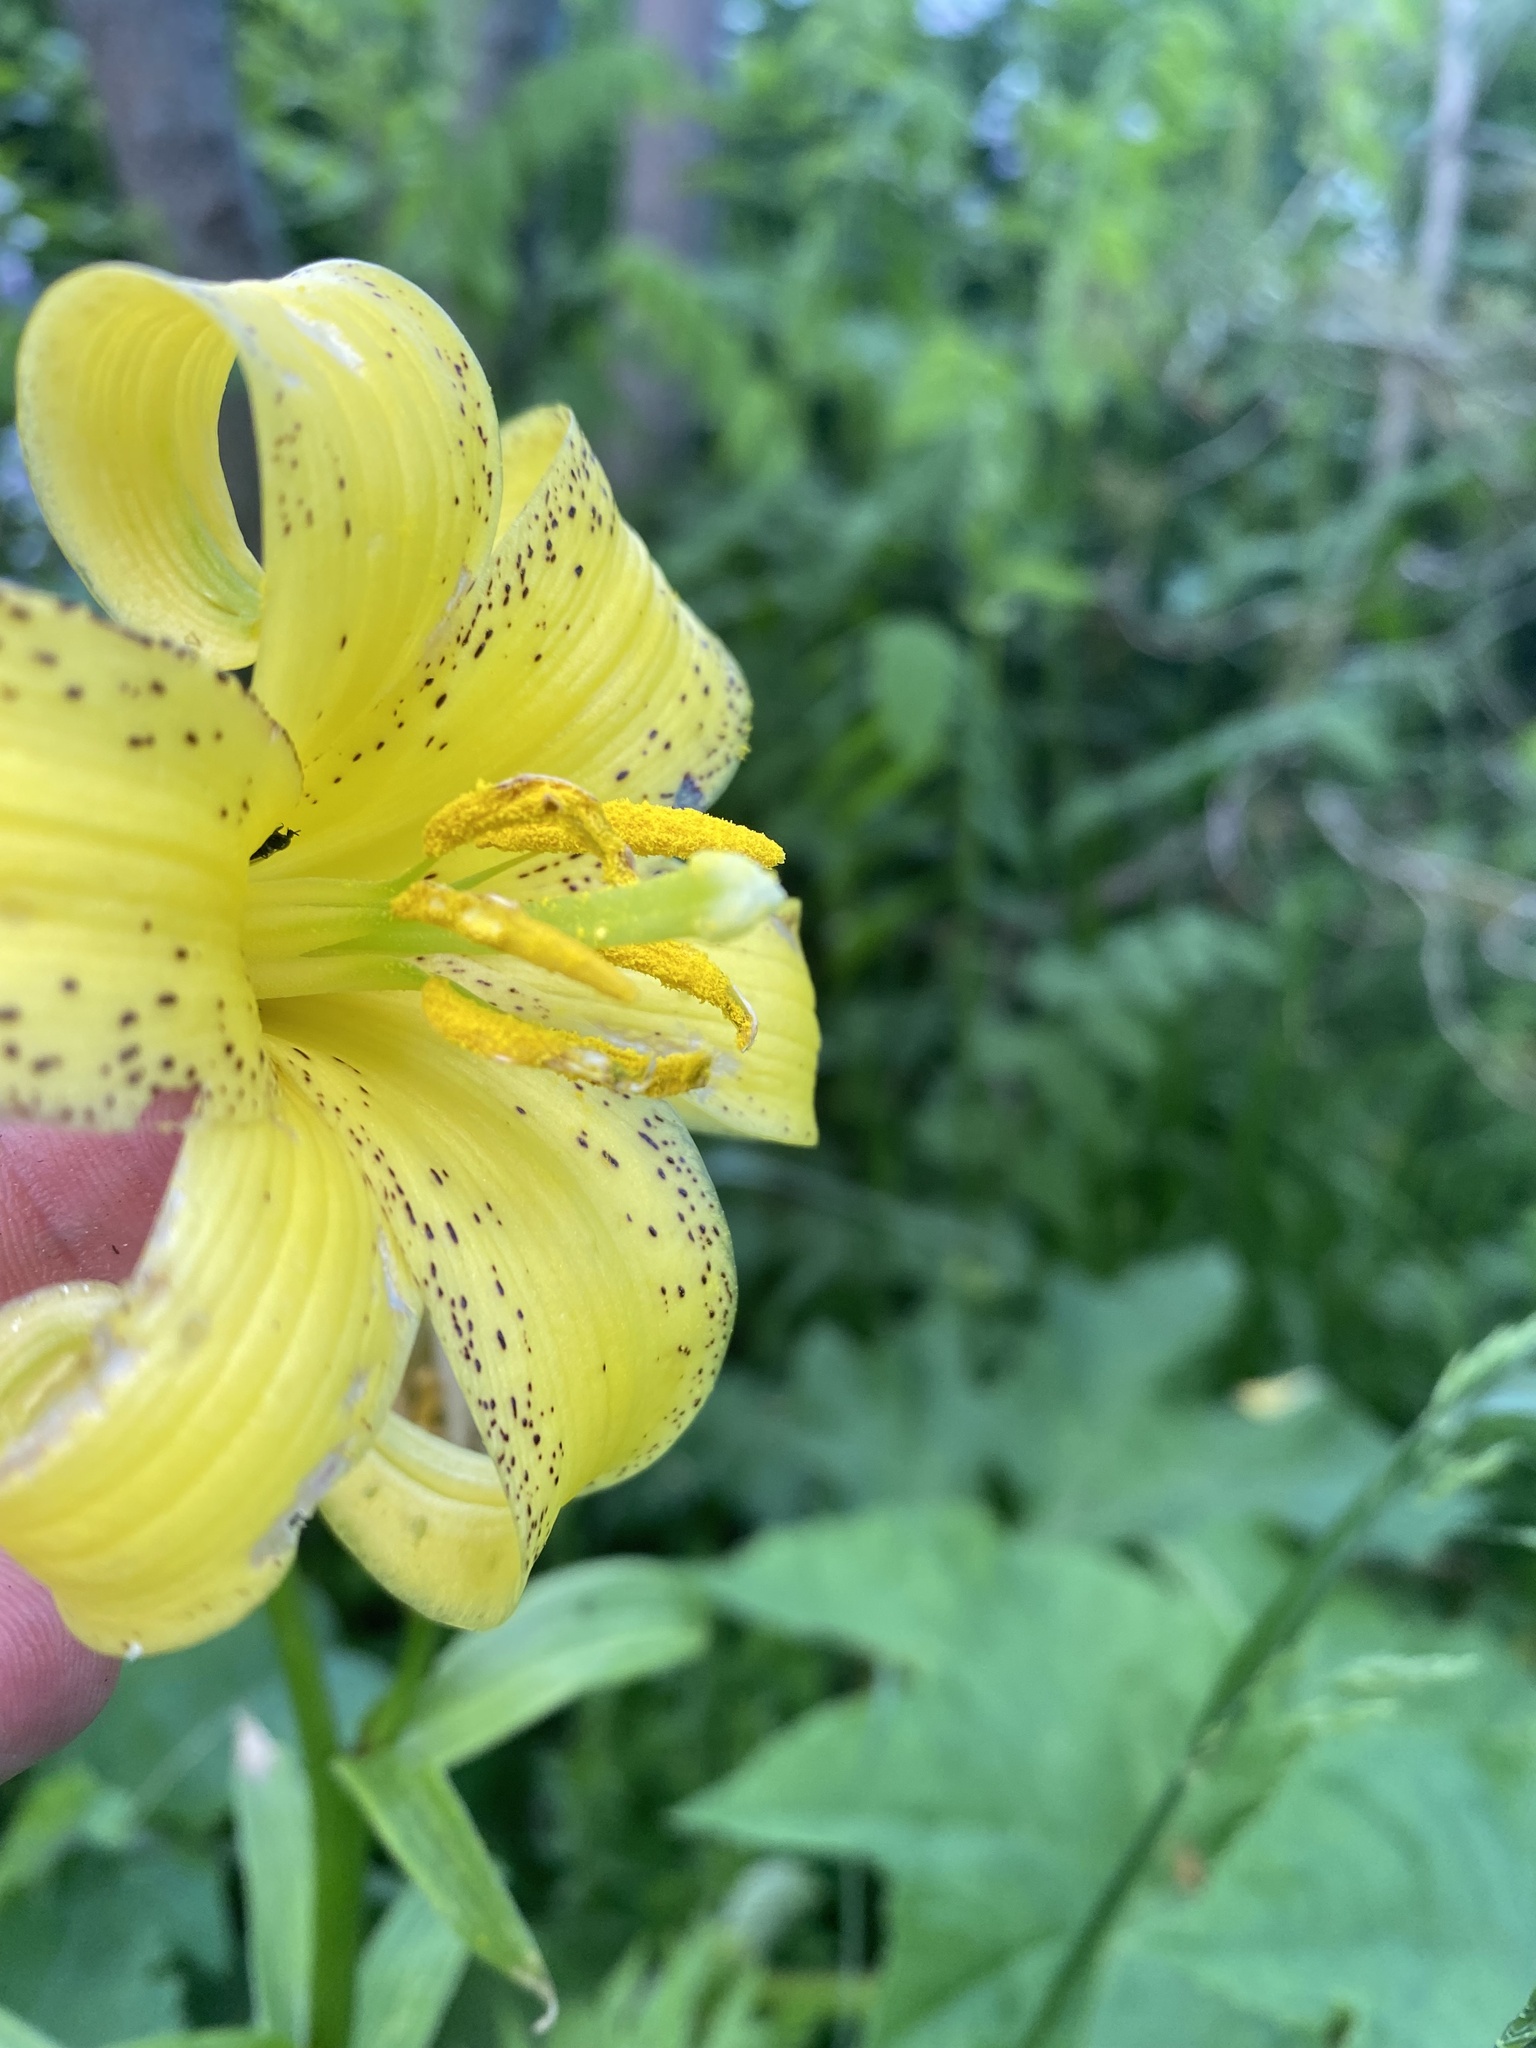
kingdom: Plantae
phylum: Tracheophyta
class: Liliopsida
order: Liliales
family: Liliaceae
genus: Lilium
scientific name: Lilium monadelphum
